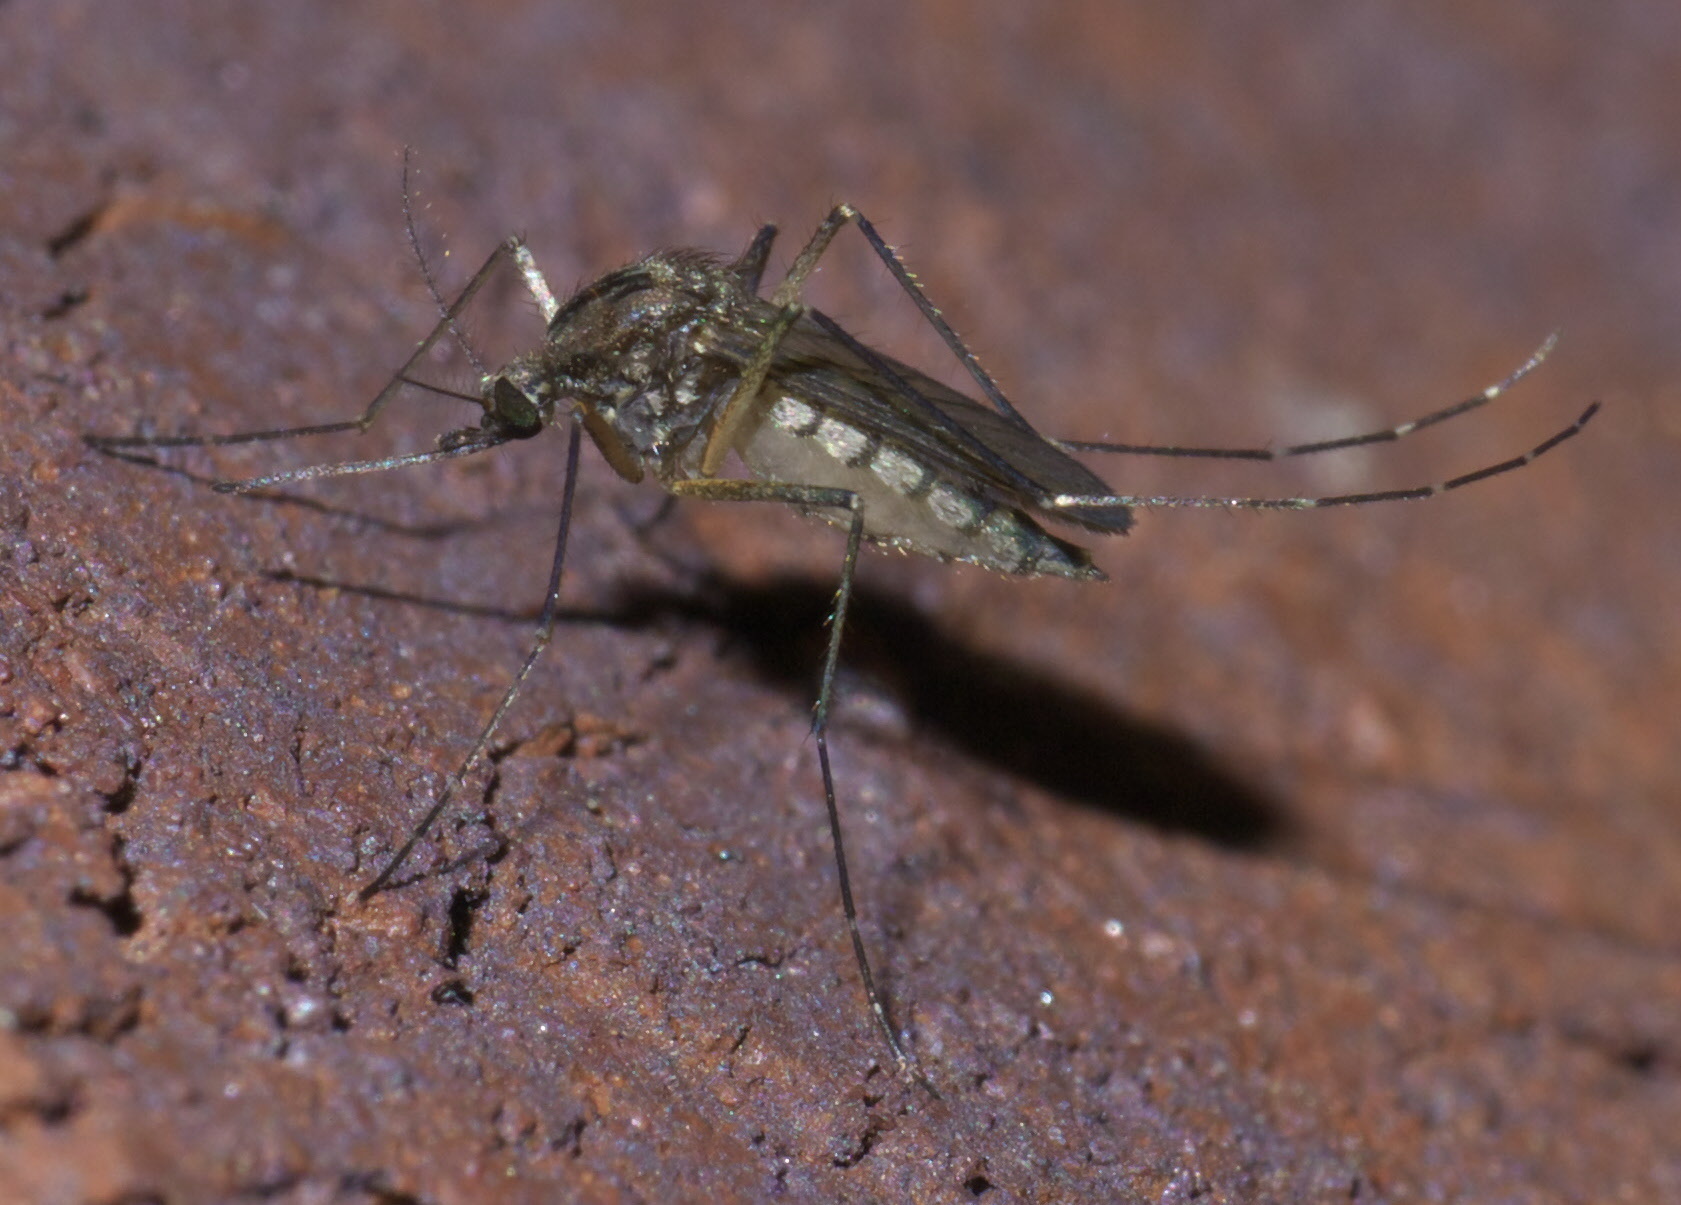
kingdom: Animalia
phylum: Arthropoda
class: Insecta
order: Diptera
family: Culicidae
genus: Aedes
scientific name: Aedes vexans
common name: Inland floodwater mosquito
